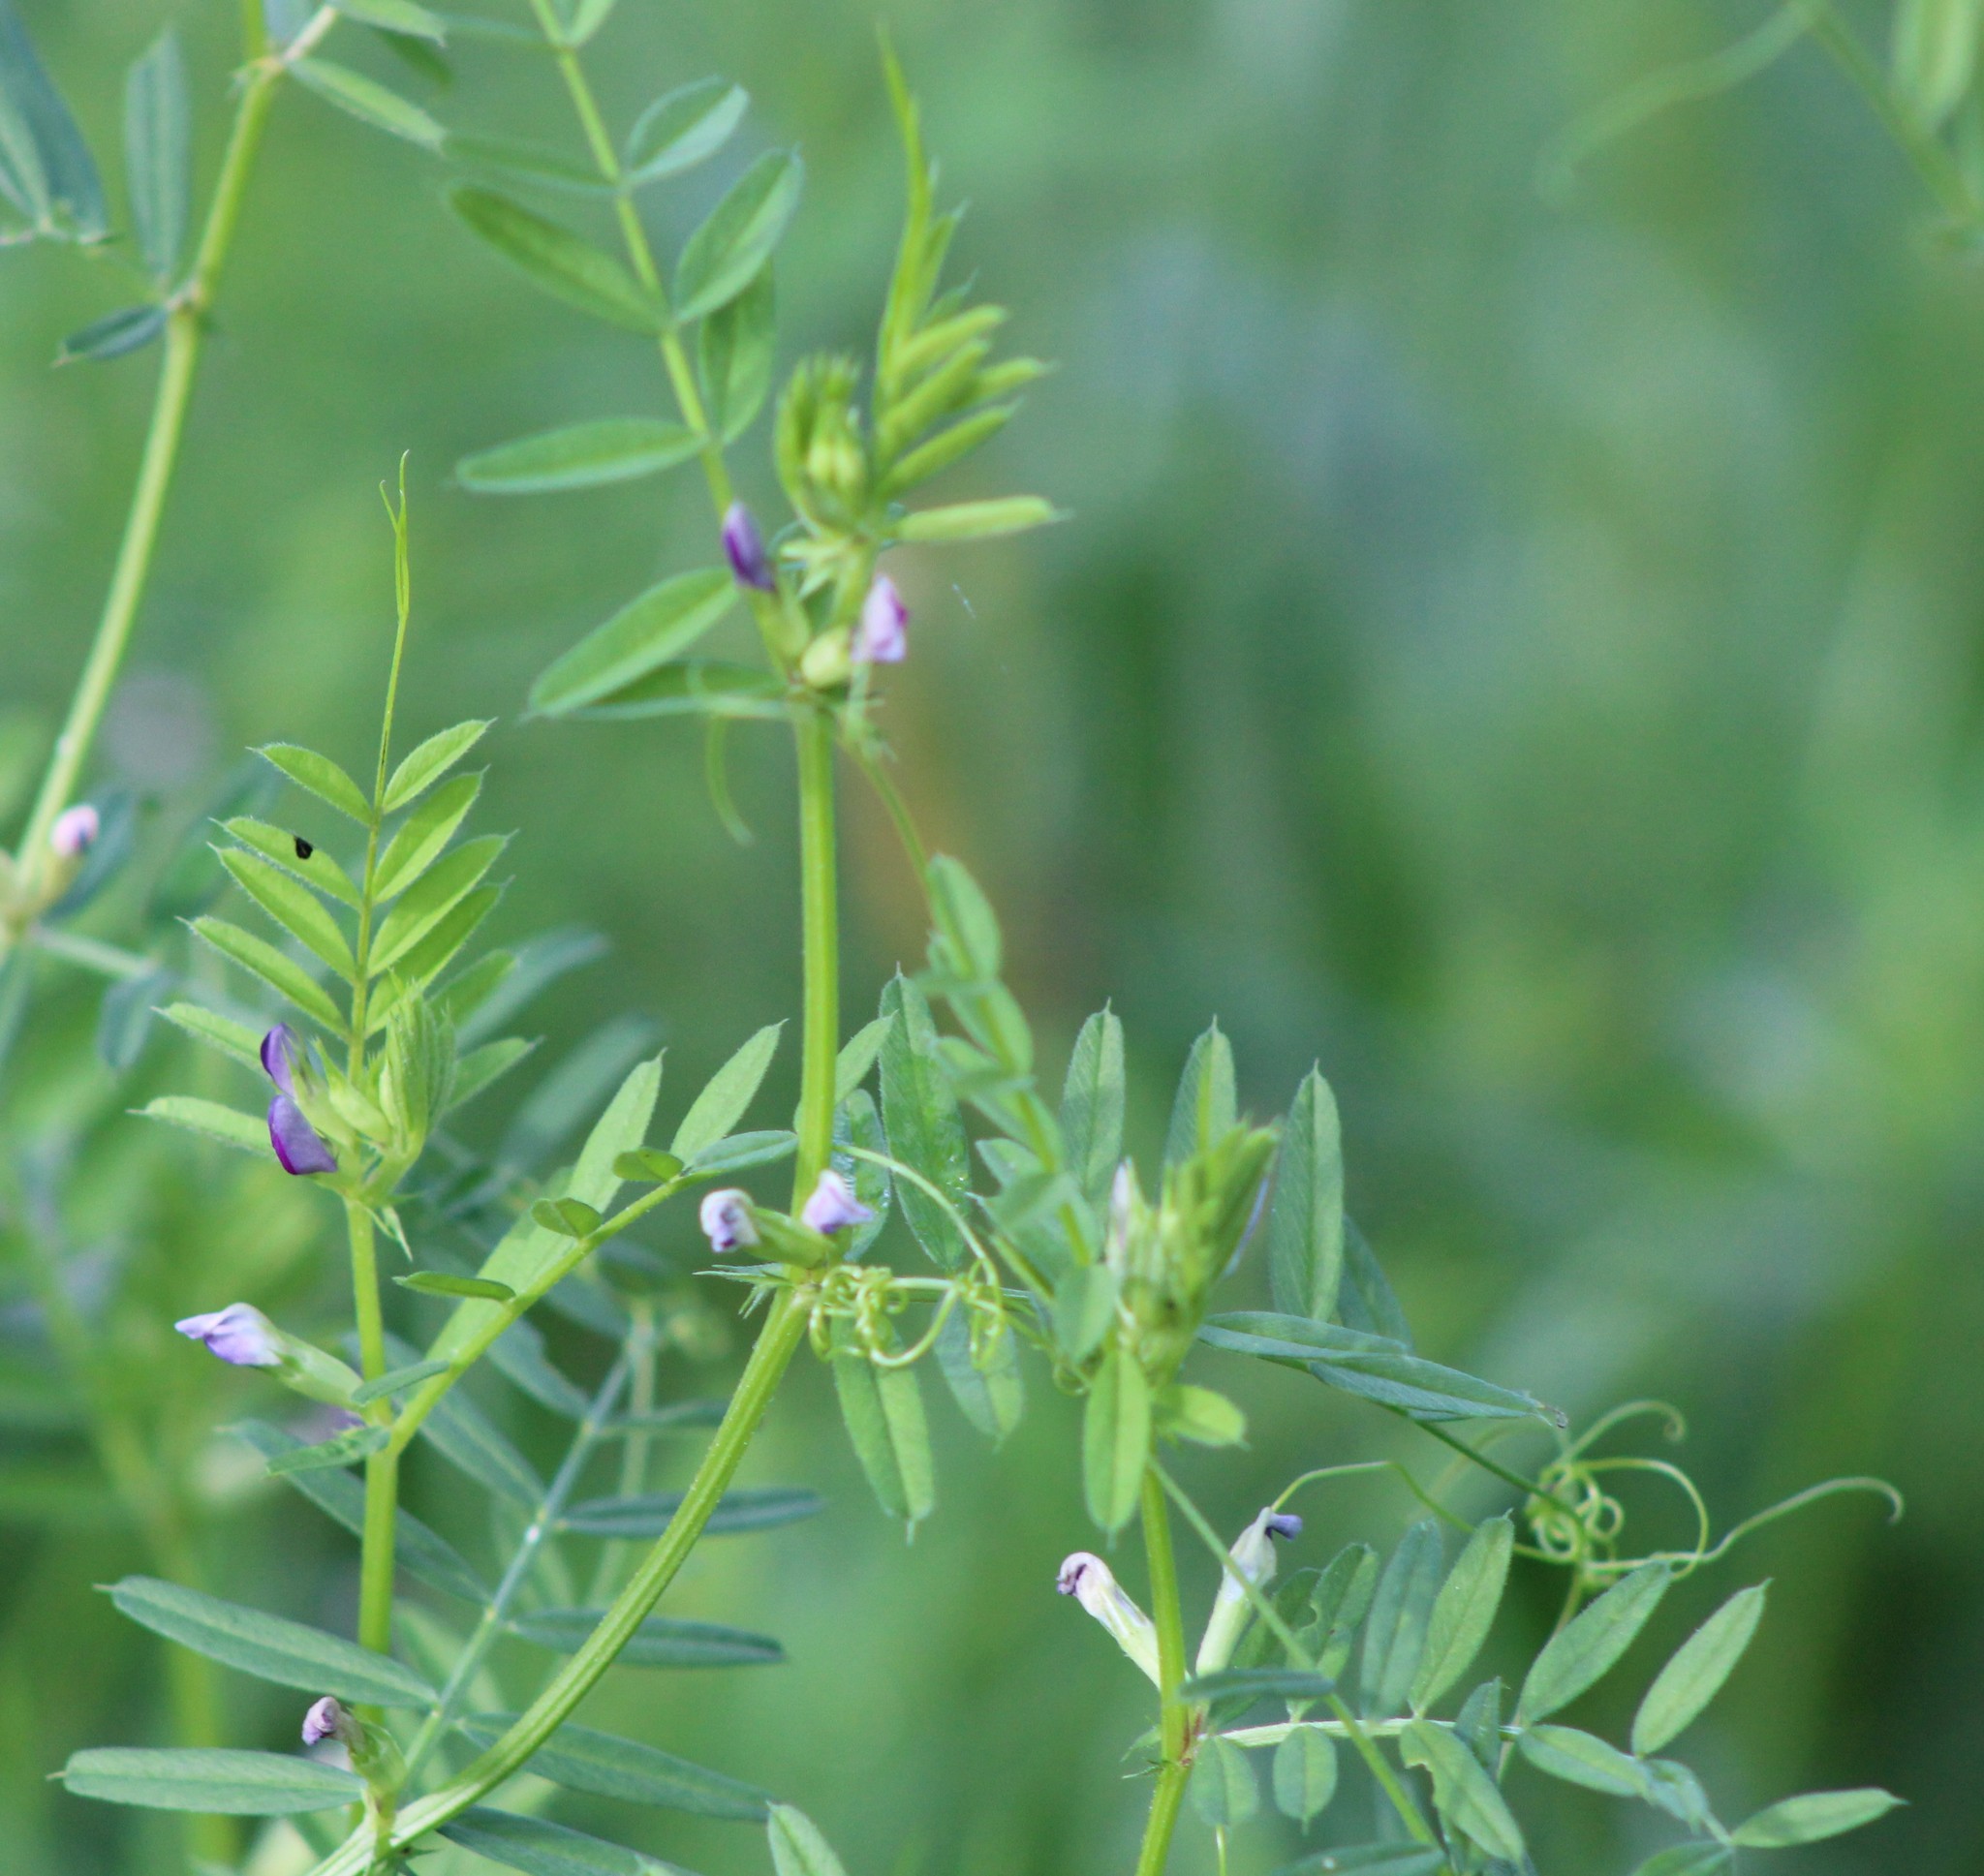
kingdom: Plantae
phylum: Tracheophyta
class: Magnoliopsida
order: Fabales
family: Fabaceae
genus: Vicia
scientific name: Vicia sativa
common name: Garden vetch
